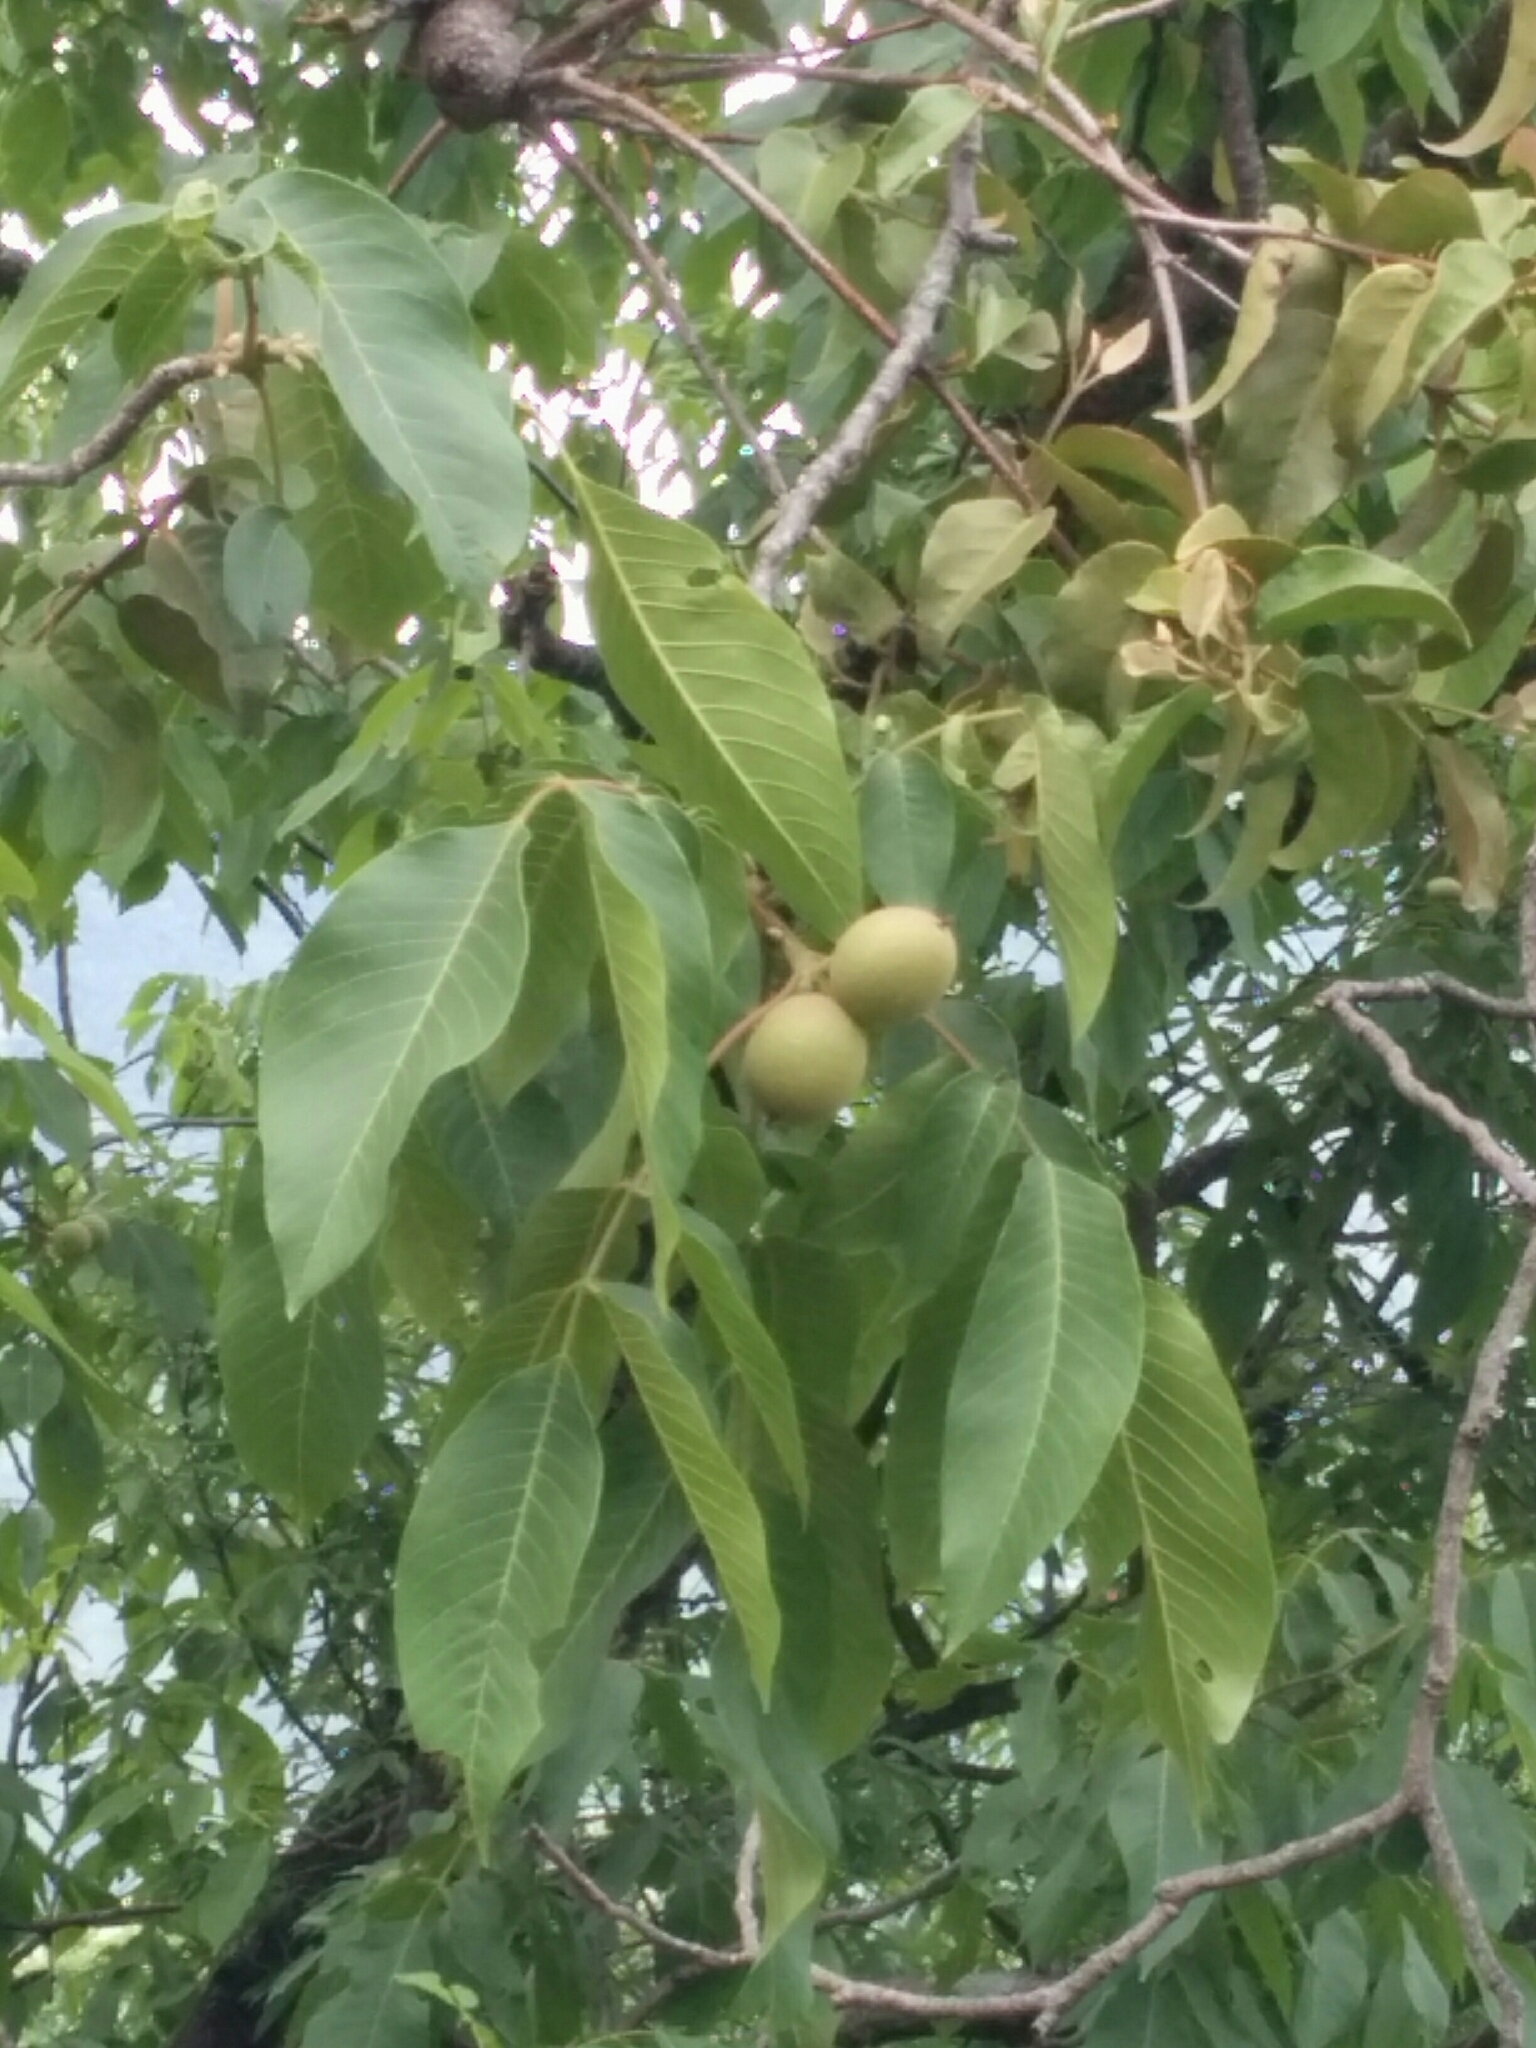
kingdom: Plantae
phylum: Tracheophyta
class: Magnoliopsida
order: Fagales
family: Juglandaceae
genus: Juglans
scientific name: Juglans regia
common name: Walnut
